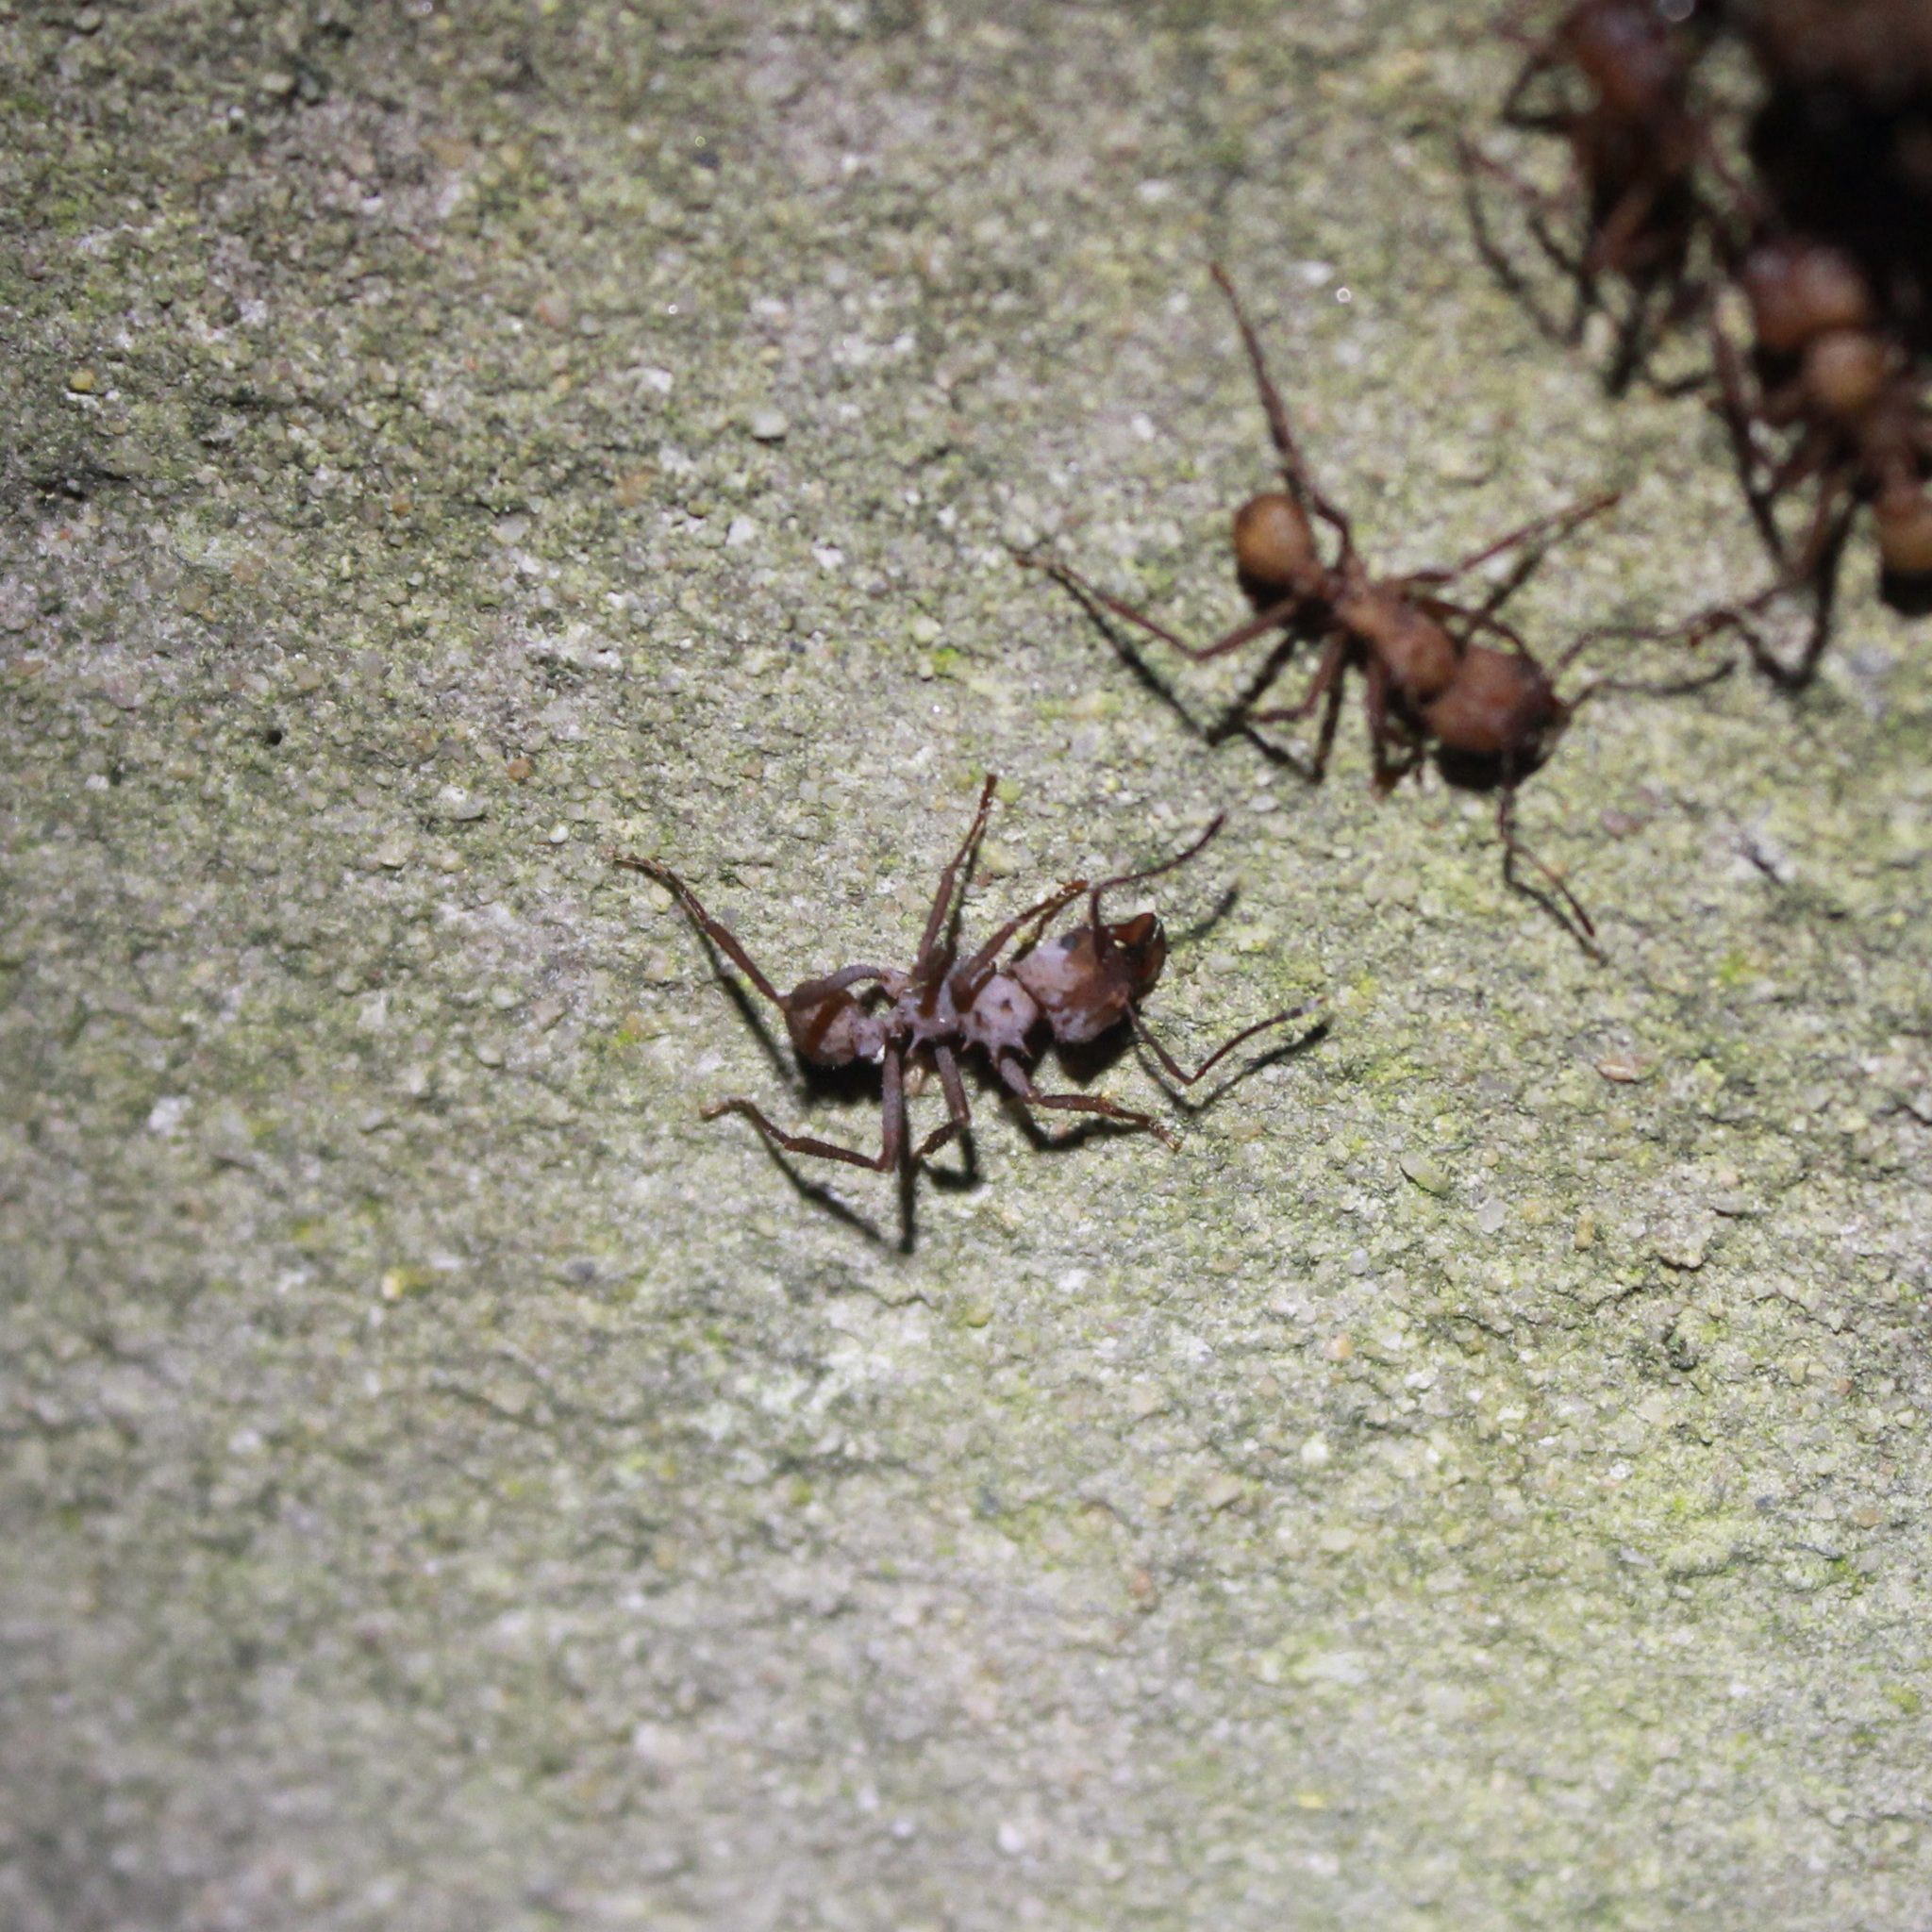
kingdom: Animalia
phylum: Arthropoda
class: Insecta
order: Hymenoptera
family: Formicidae
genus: Acromyrmex
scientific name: Acromyrmex octospinosus
